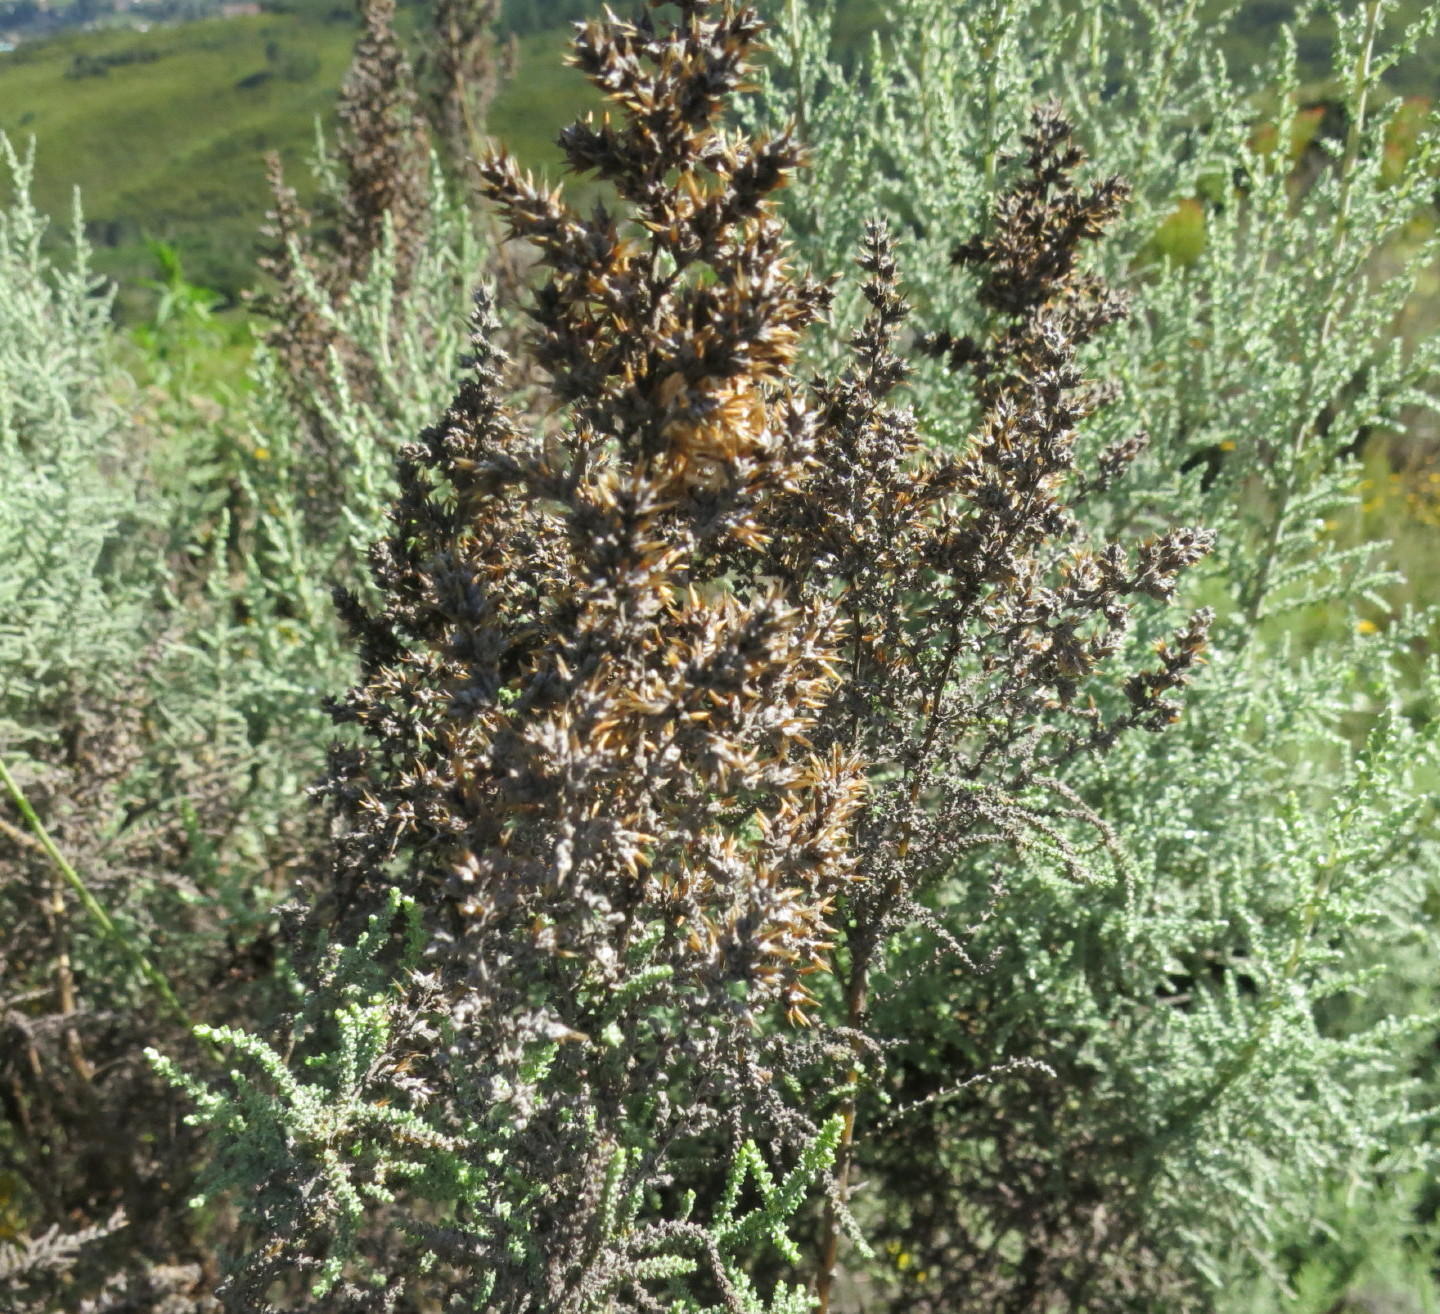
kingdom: Plantae
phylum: Tracheophyta
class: Magnoliopsida
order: Asterales
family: Asteraceae
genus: Seriphium
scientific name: Seriphium plumosum
